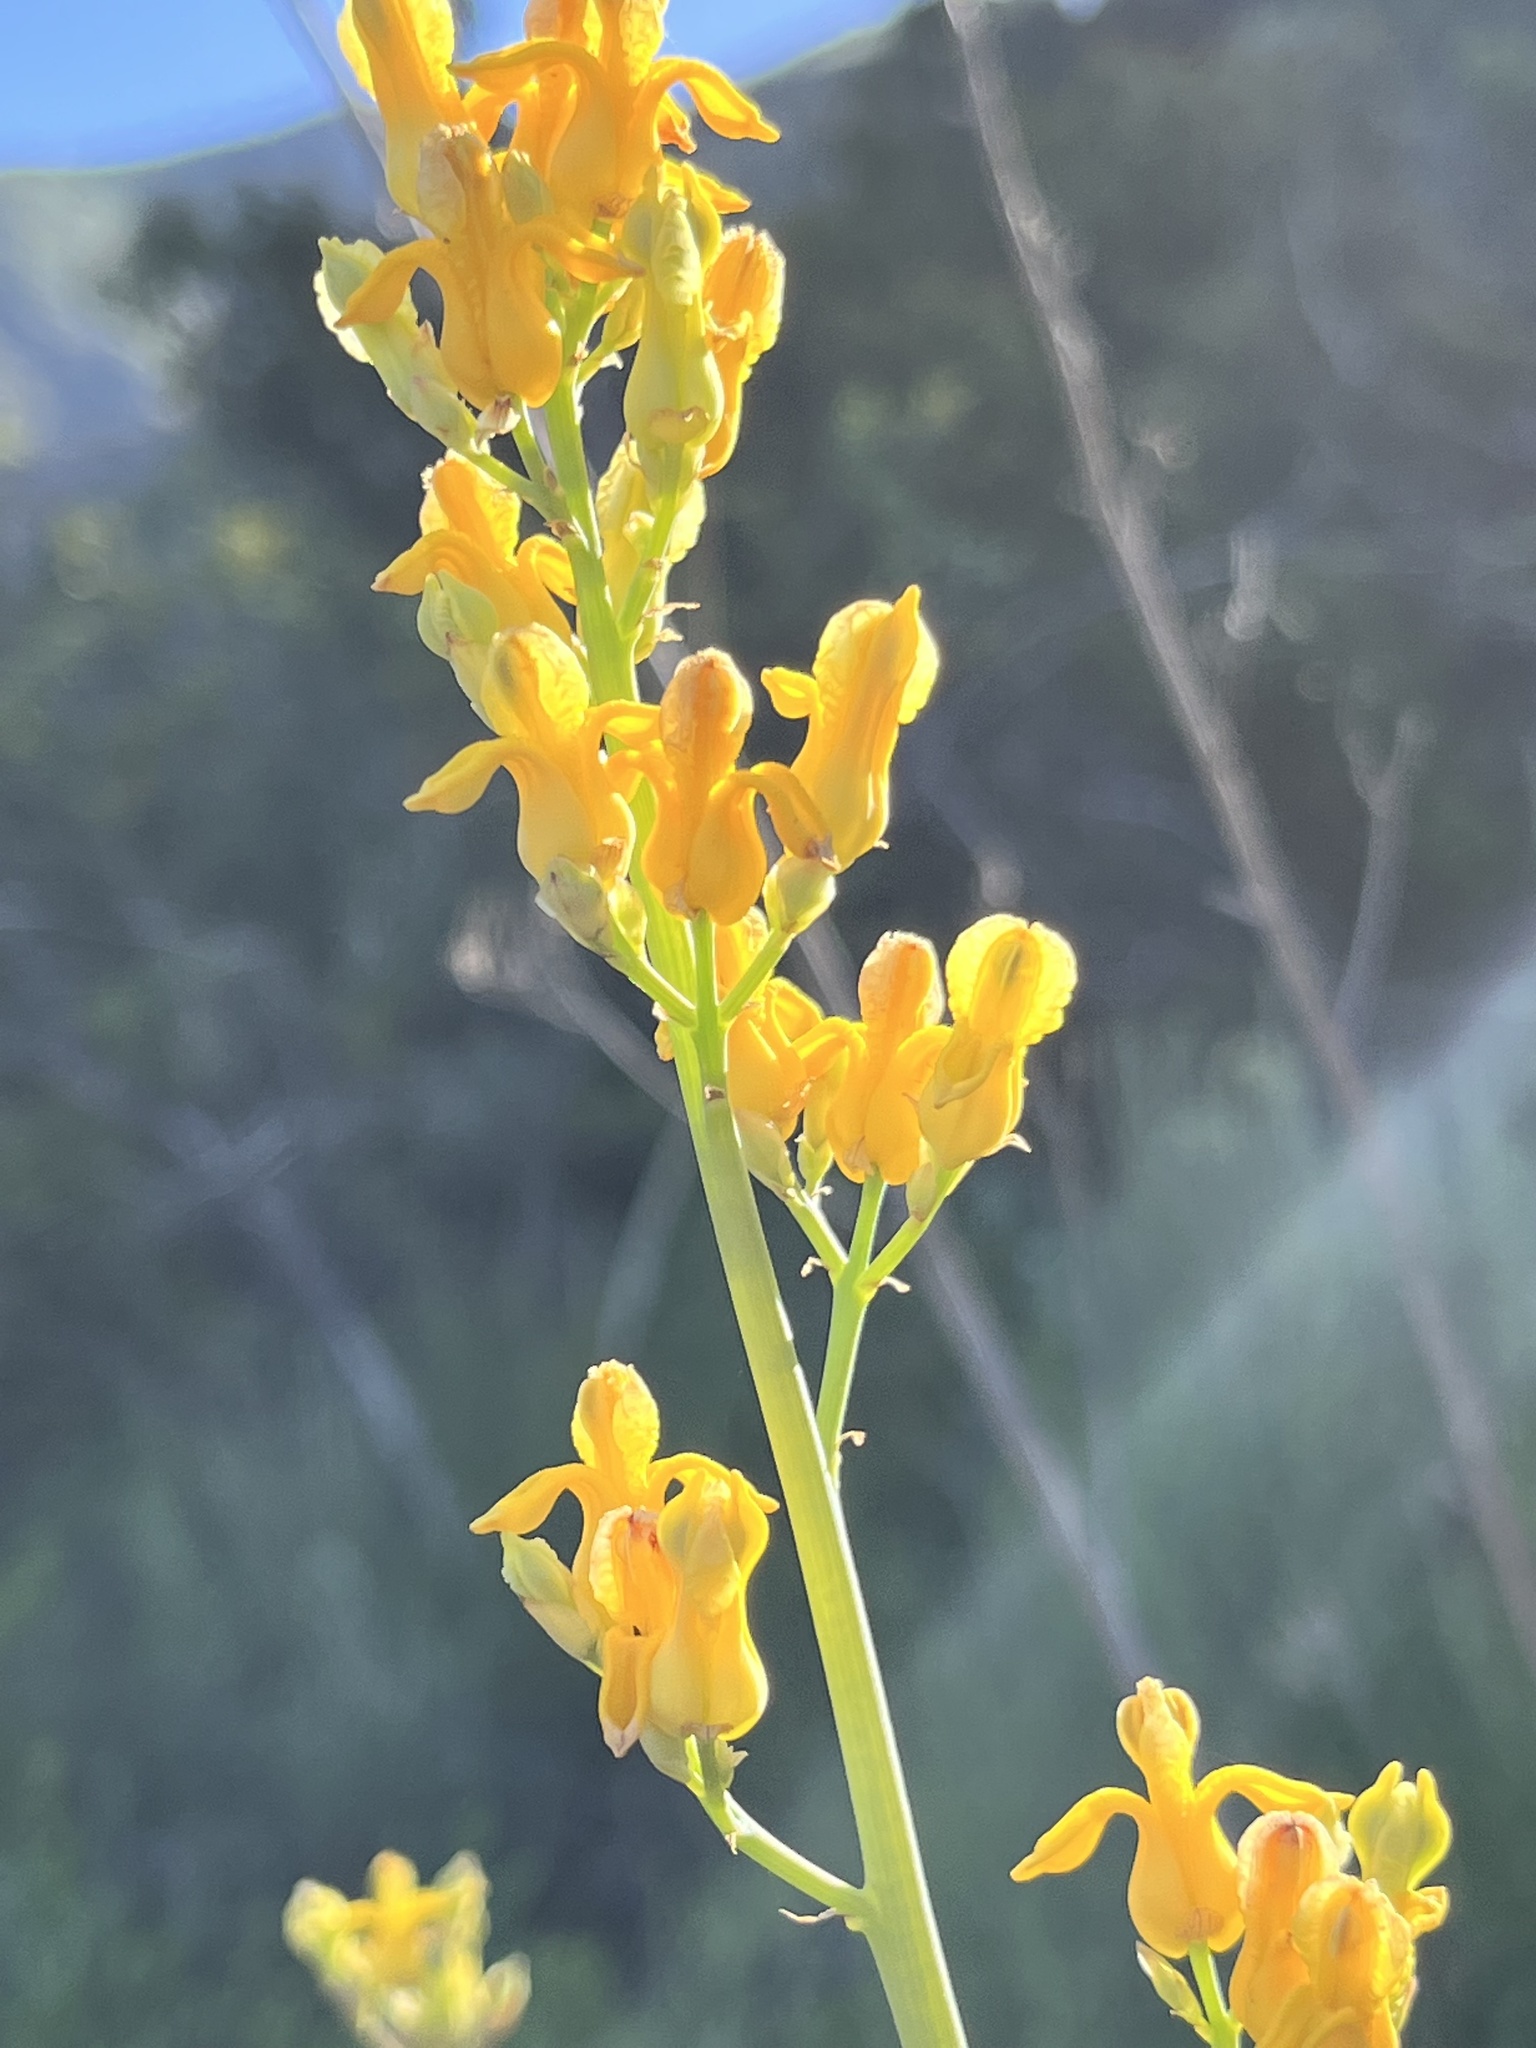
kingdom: Plantae
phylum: Tracheophyta
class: Magnoliopsida
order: Ranunculales
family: Papaveraceae
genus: Ehrendorferia
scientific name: Ehrendorferia chrysantha
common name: Golden eardrops
